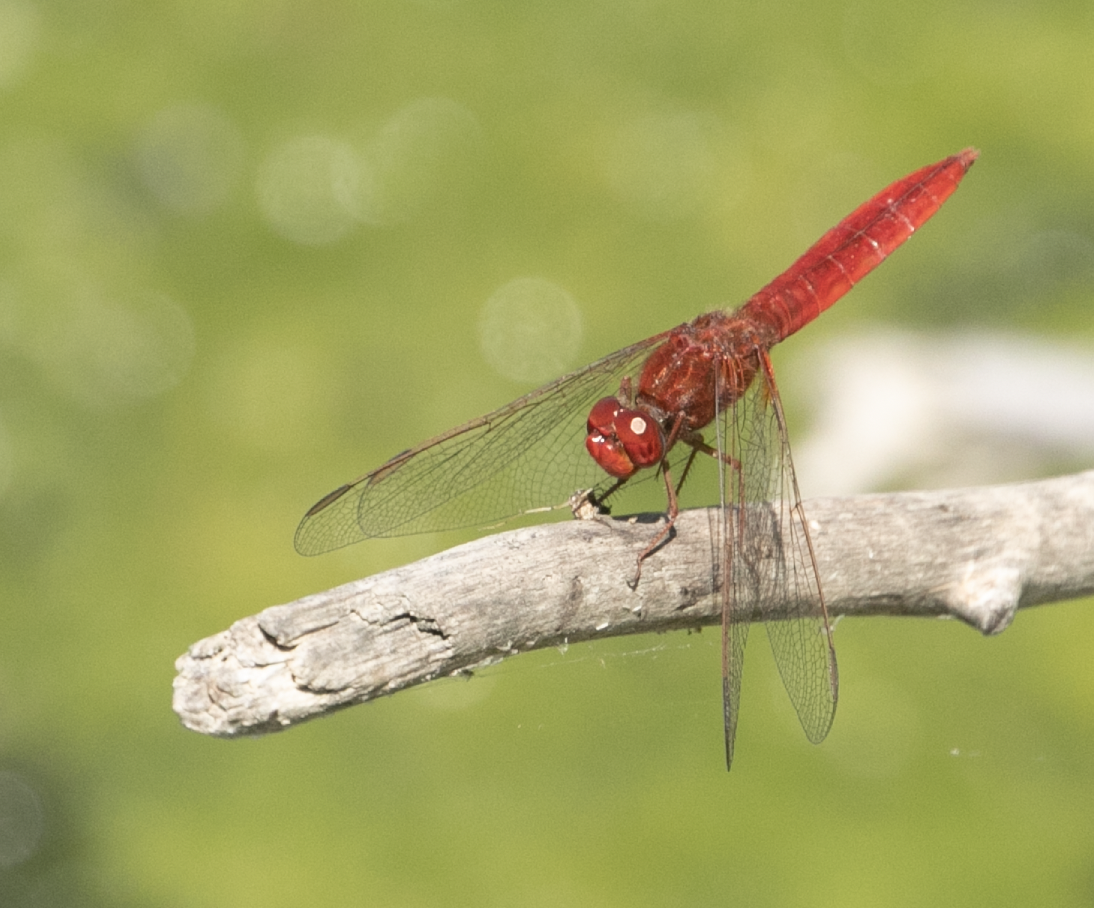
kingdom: Animalia
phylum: Arthropoda
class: Insecta
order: Odonata
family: Libellulidae
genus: Crocothemis
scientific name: Crocothemis erythraea
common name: Scarlet dragonfly
